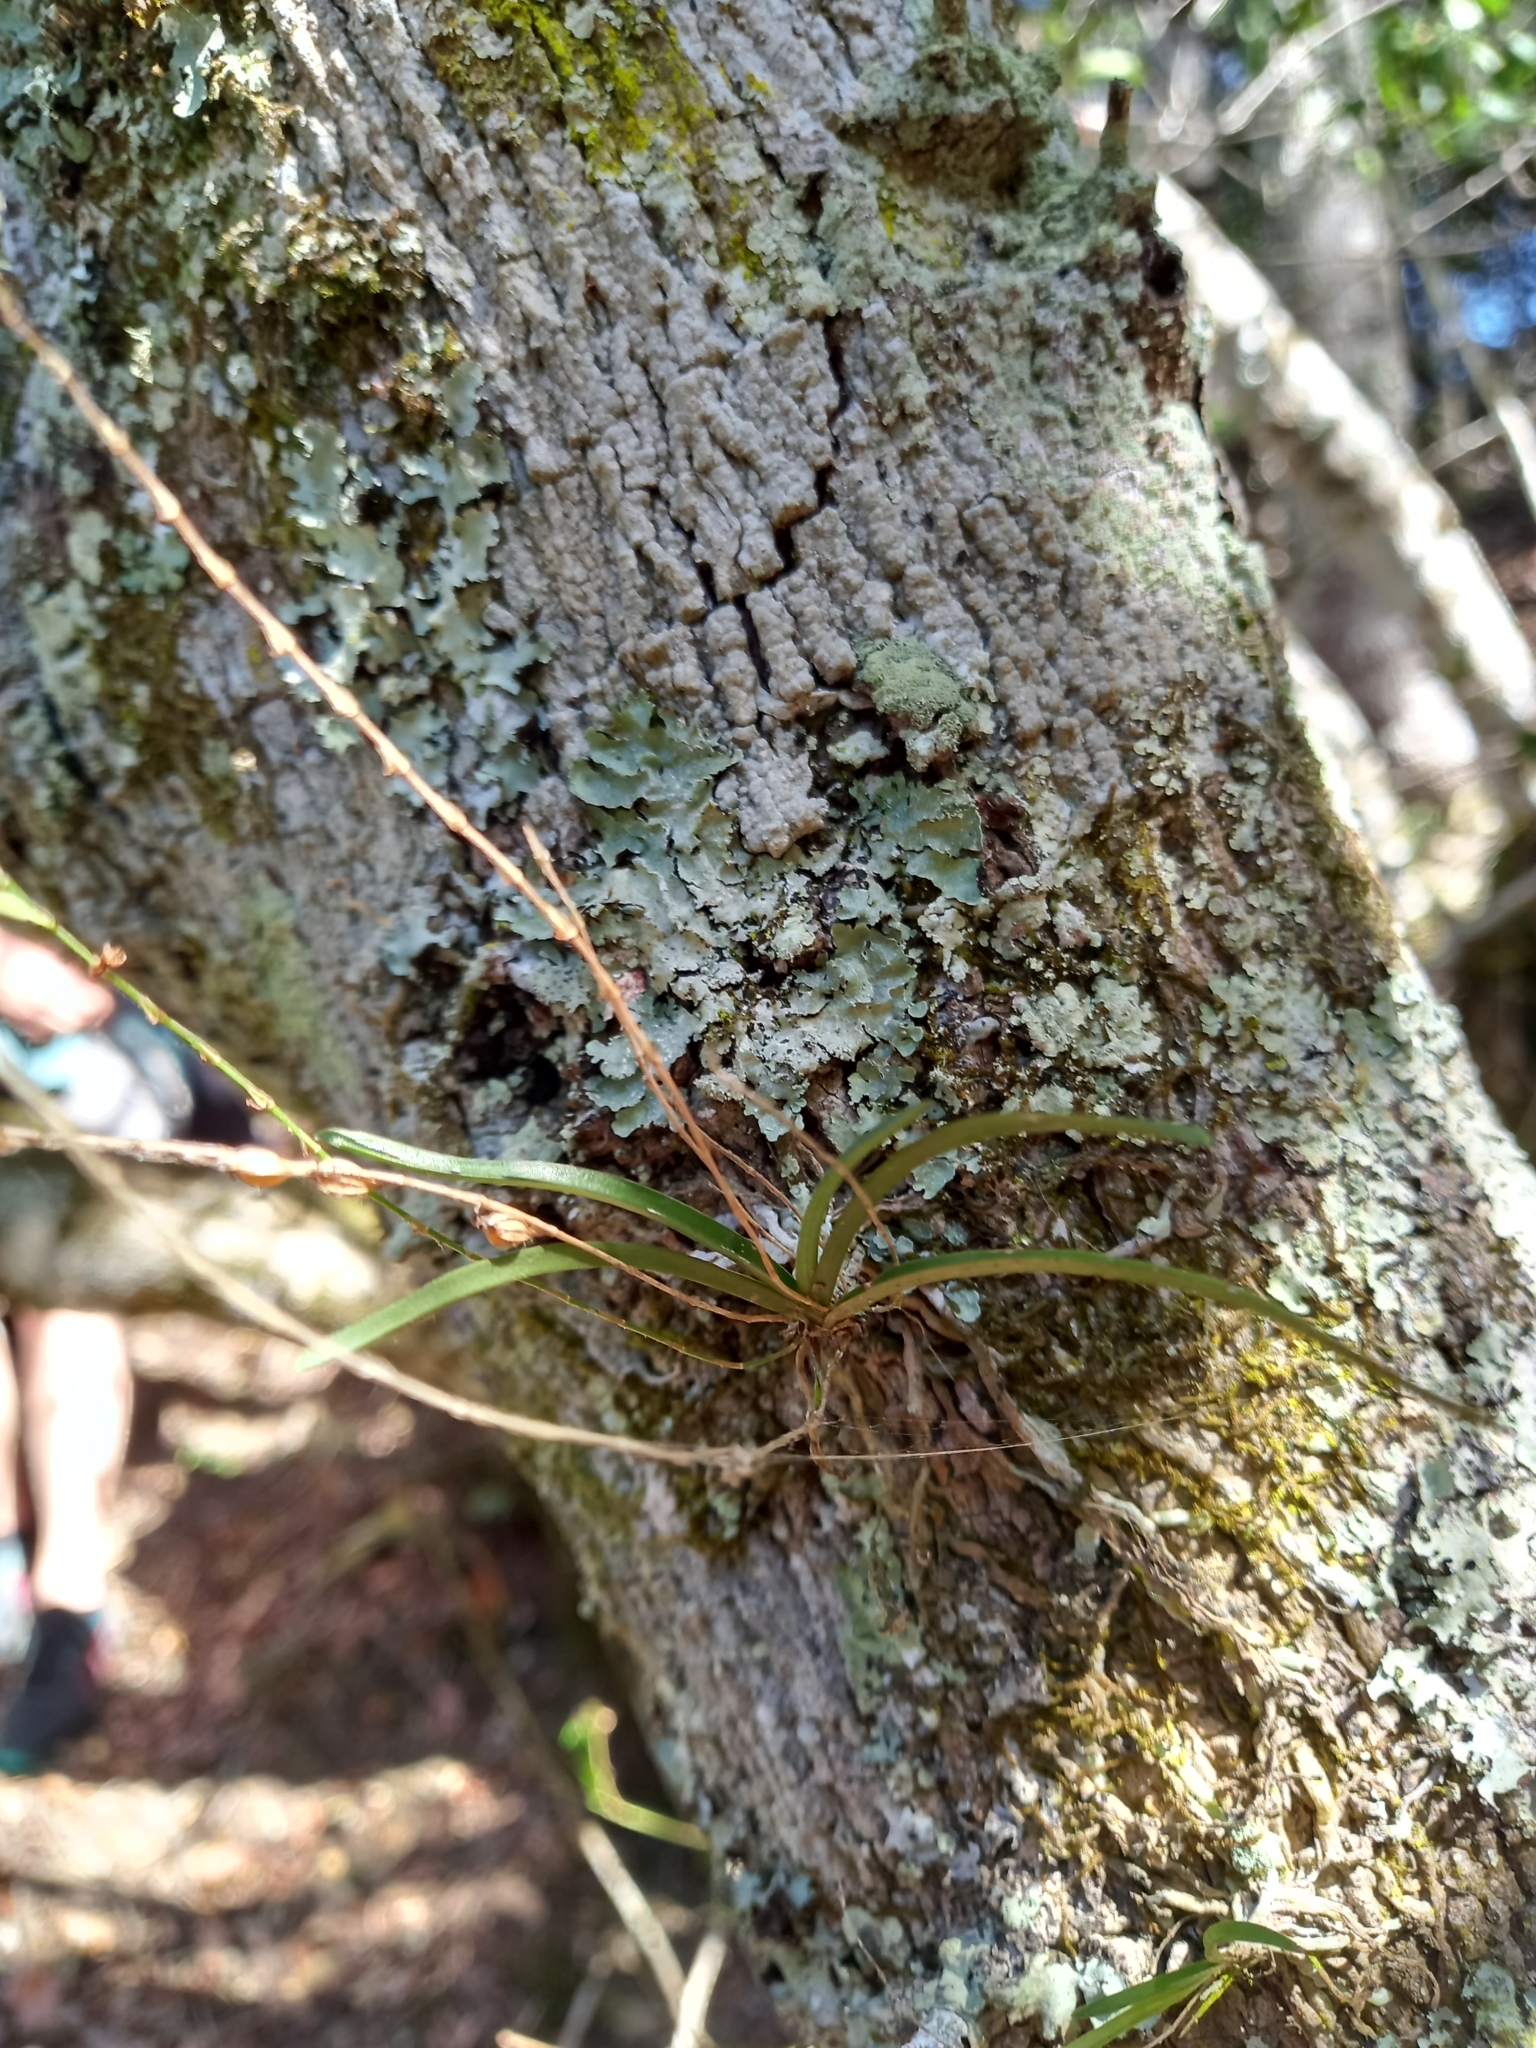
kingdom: Plantae
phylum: Tracheophyta
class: Liliopsida
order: Asparagales
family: Orchidaceae
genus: Angraecum
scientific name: Angraecum pusillum
